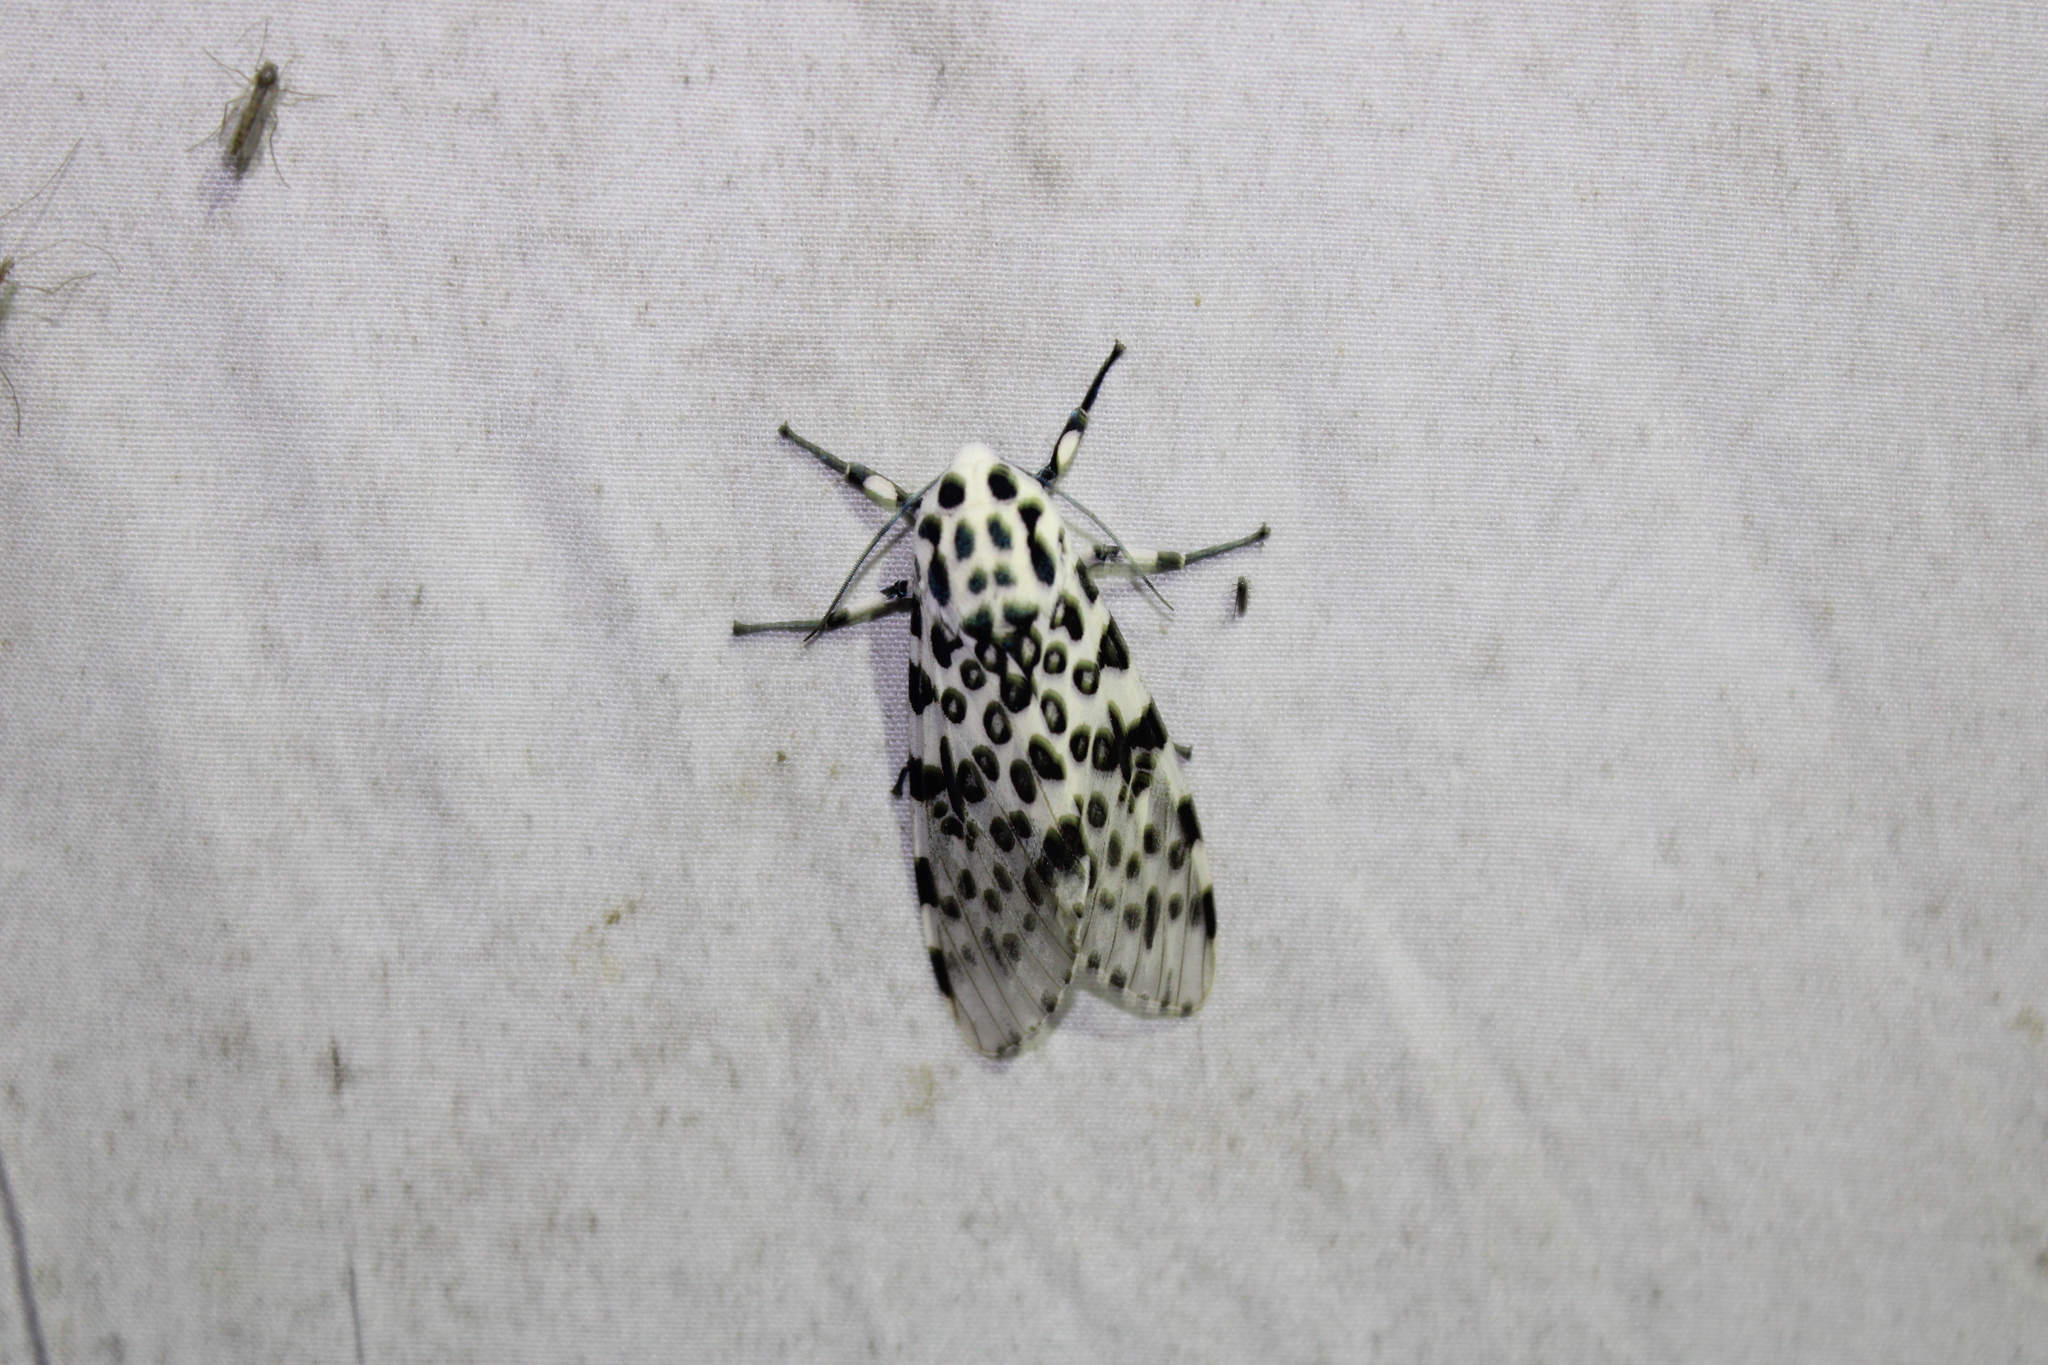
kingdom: Animalia
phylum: Arthropoda
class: Insecta
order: Lepidoptera
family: Erebidae
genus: Hypercompe
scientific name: Hypercompe scribonia
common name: Giant leopard moth
